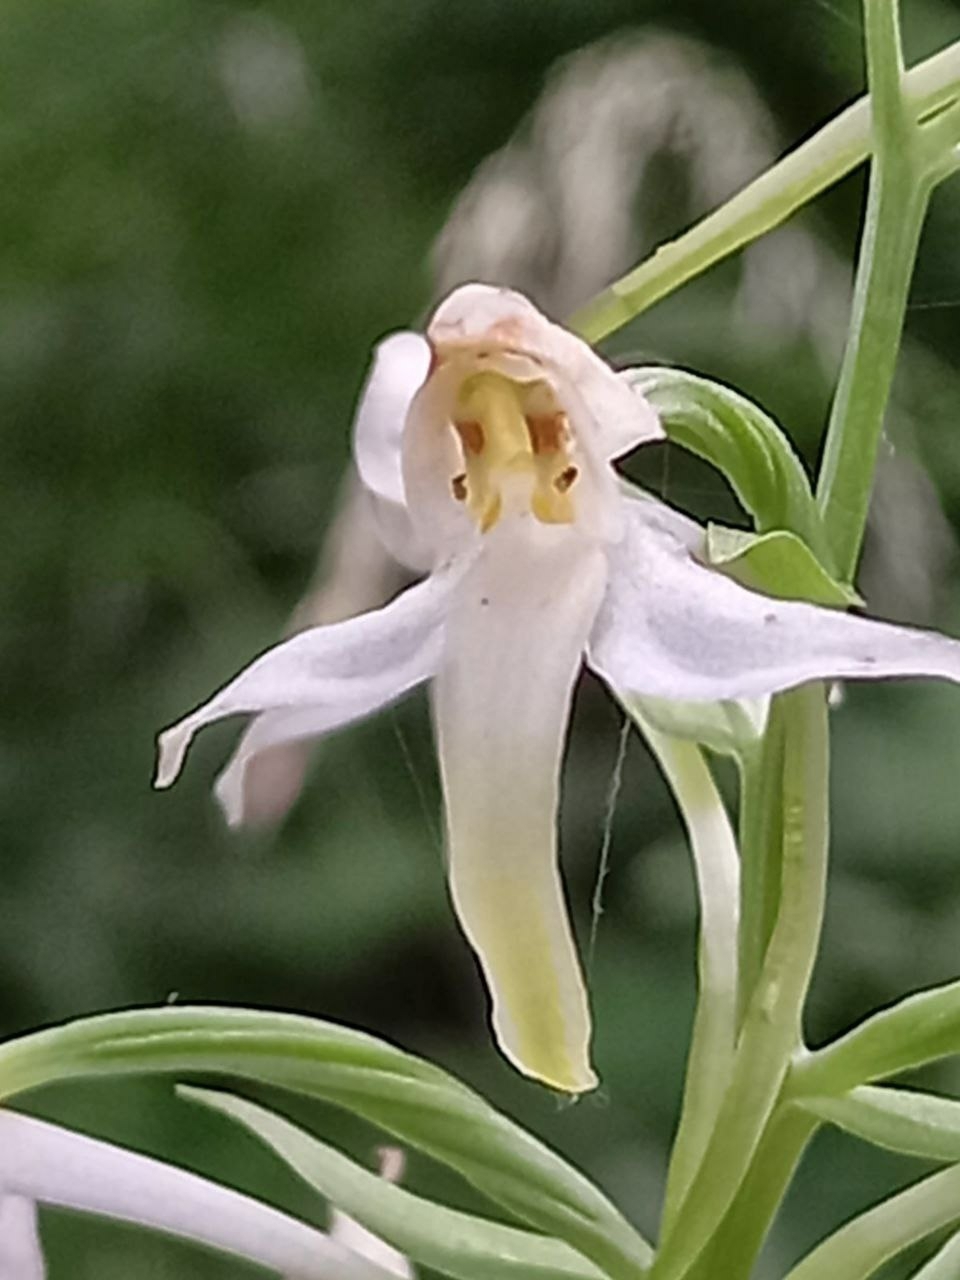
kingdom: Plantae
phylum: Tracheophyta
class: Liliopsida
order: Asparagales
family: Orchidaceae
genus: Platanthera
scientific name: Platanthera bifolia
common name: Lesser butterfly-orchid
